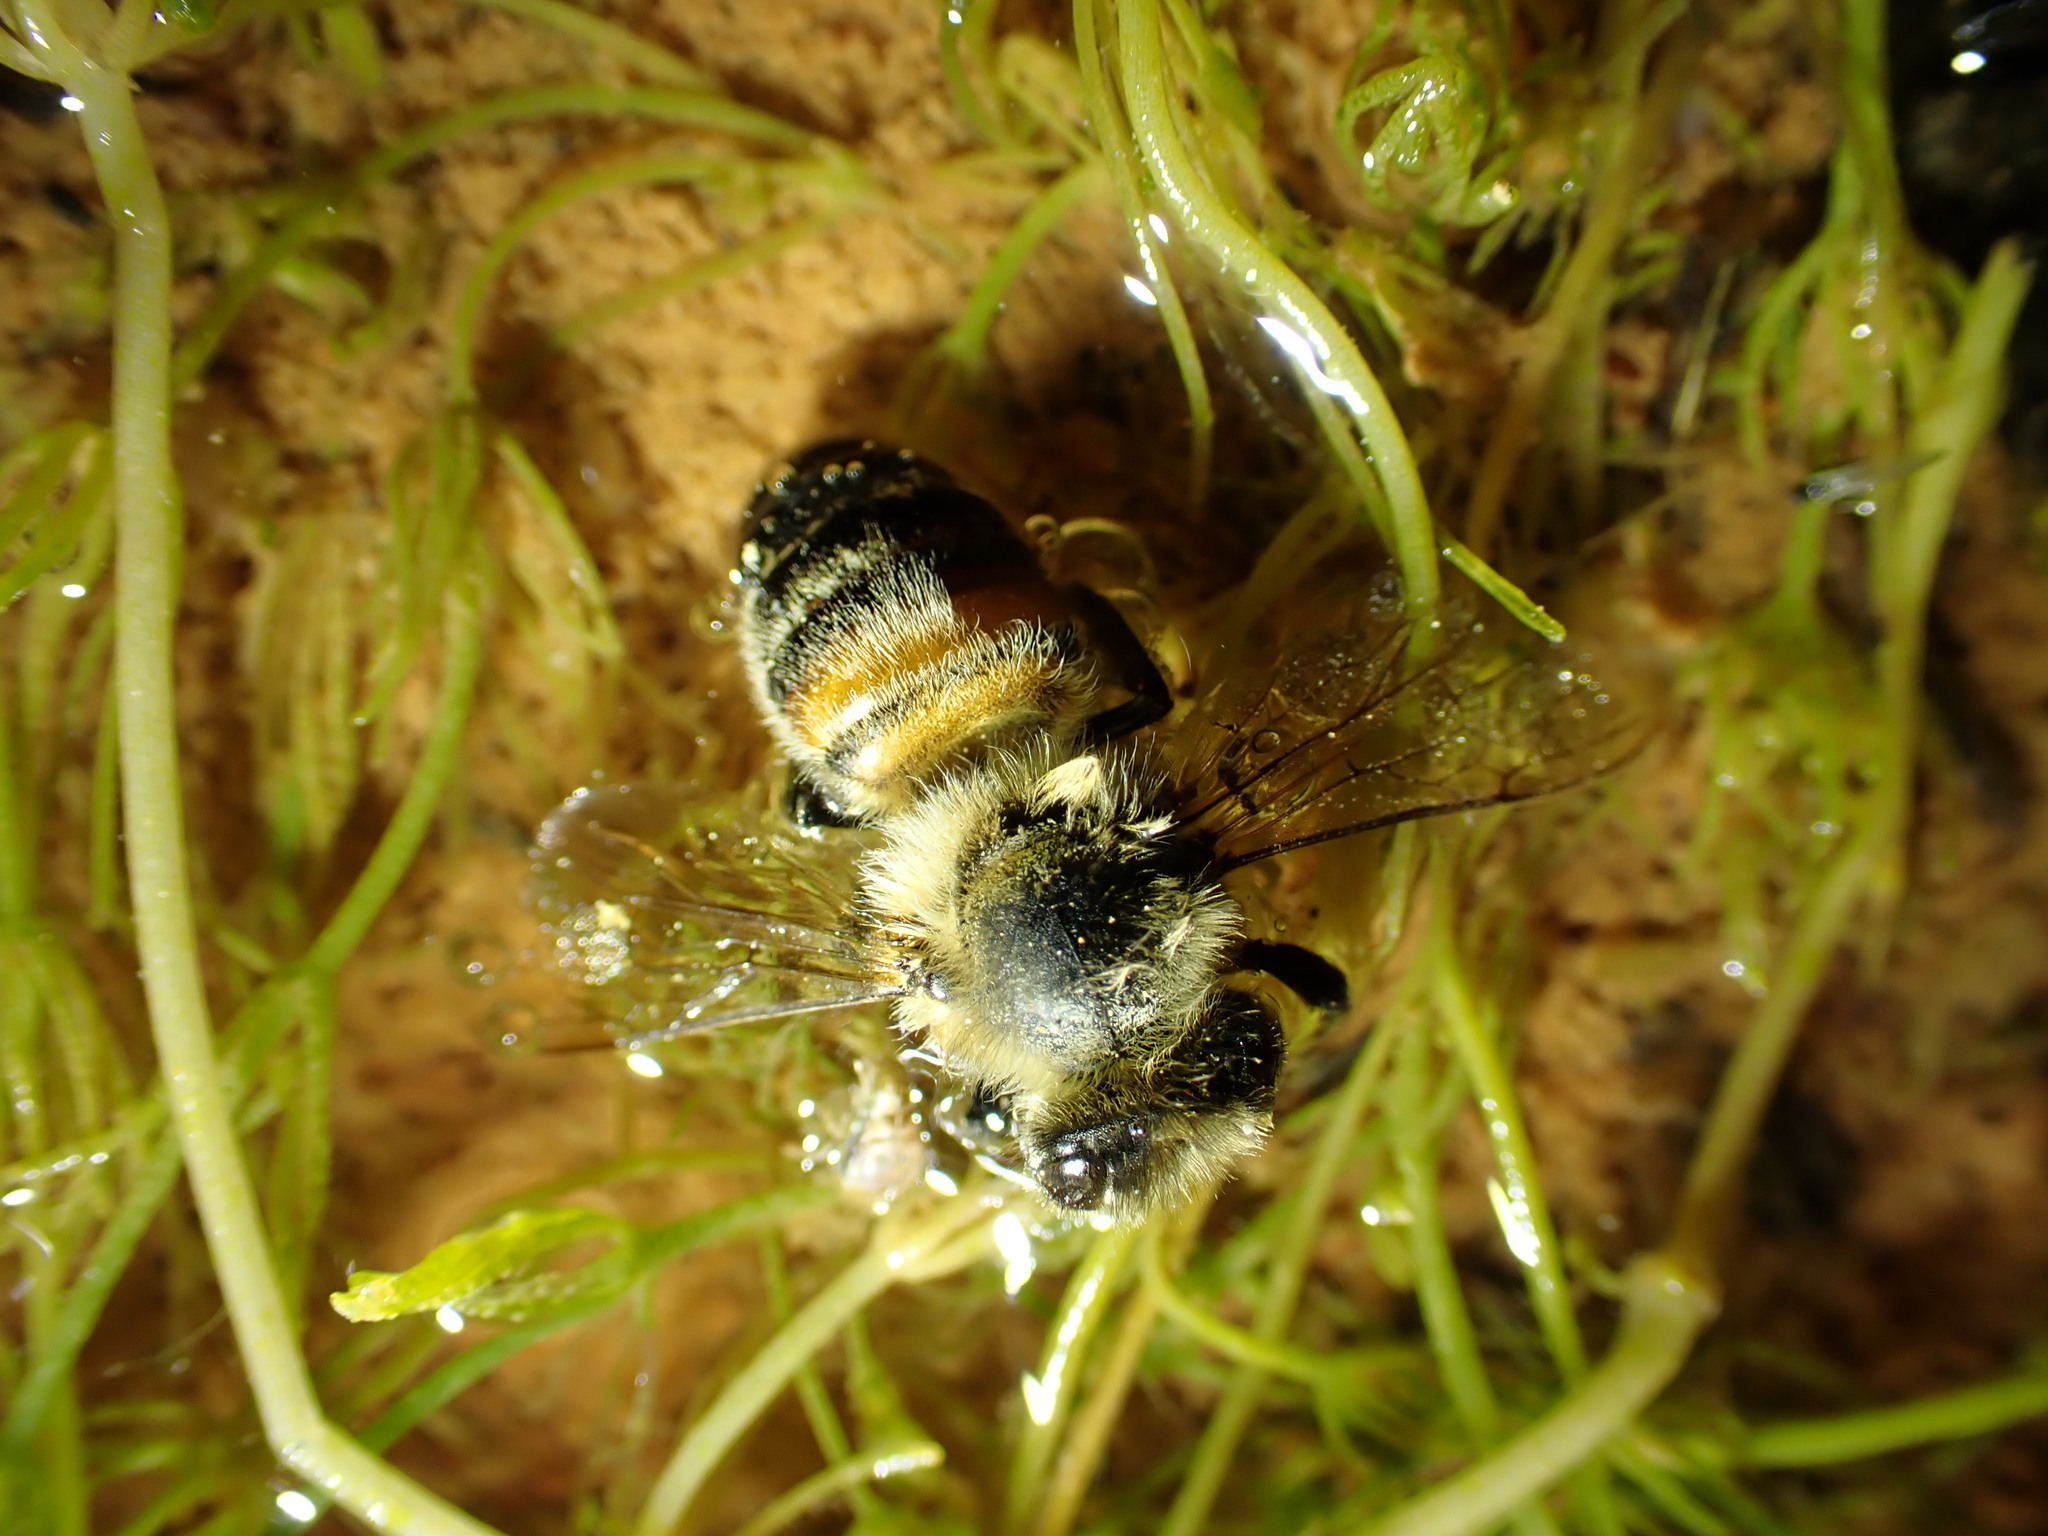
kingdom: Animalia
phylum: Arthropoda
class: Insecta
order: Hymenoptera
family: Apidae
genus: Apis
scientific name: Apis mellifera
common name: Honey bee
